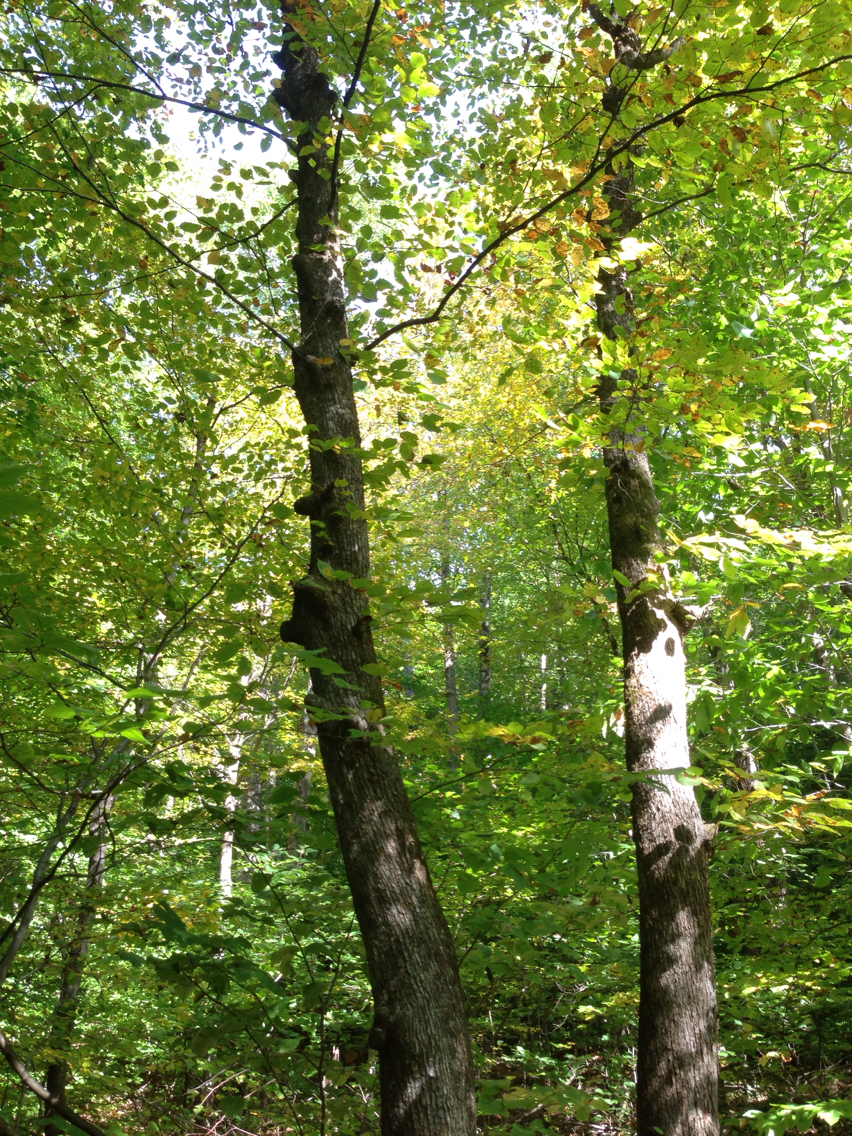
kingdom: Plantae
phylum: Tracheophyta
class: Magnoliopsida
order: Fagales
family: Betulaceae
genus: Ostrya
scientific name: Ostrya virginiana
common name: Ironwood
